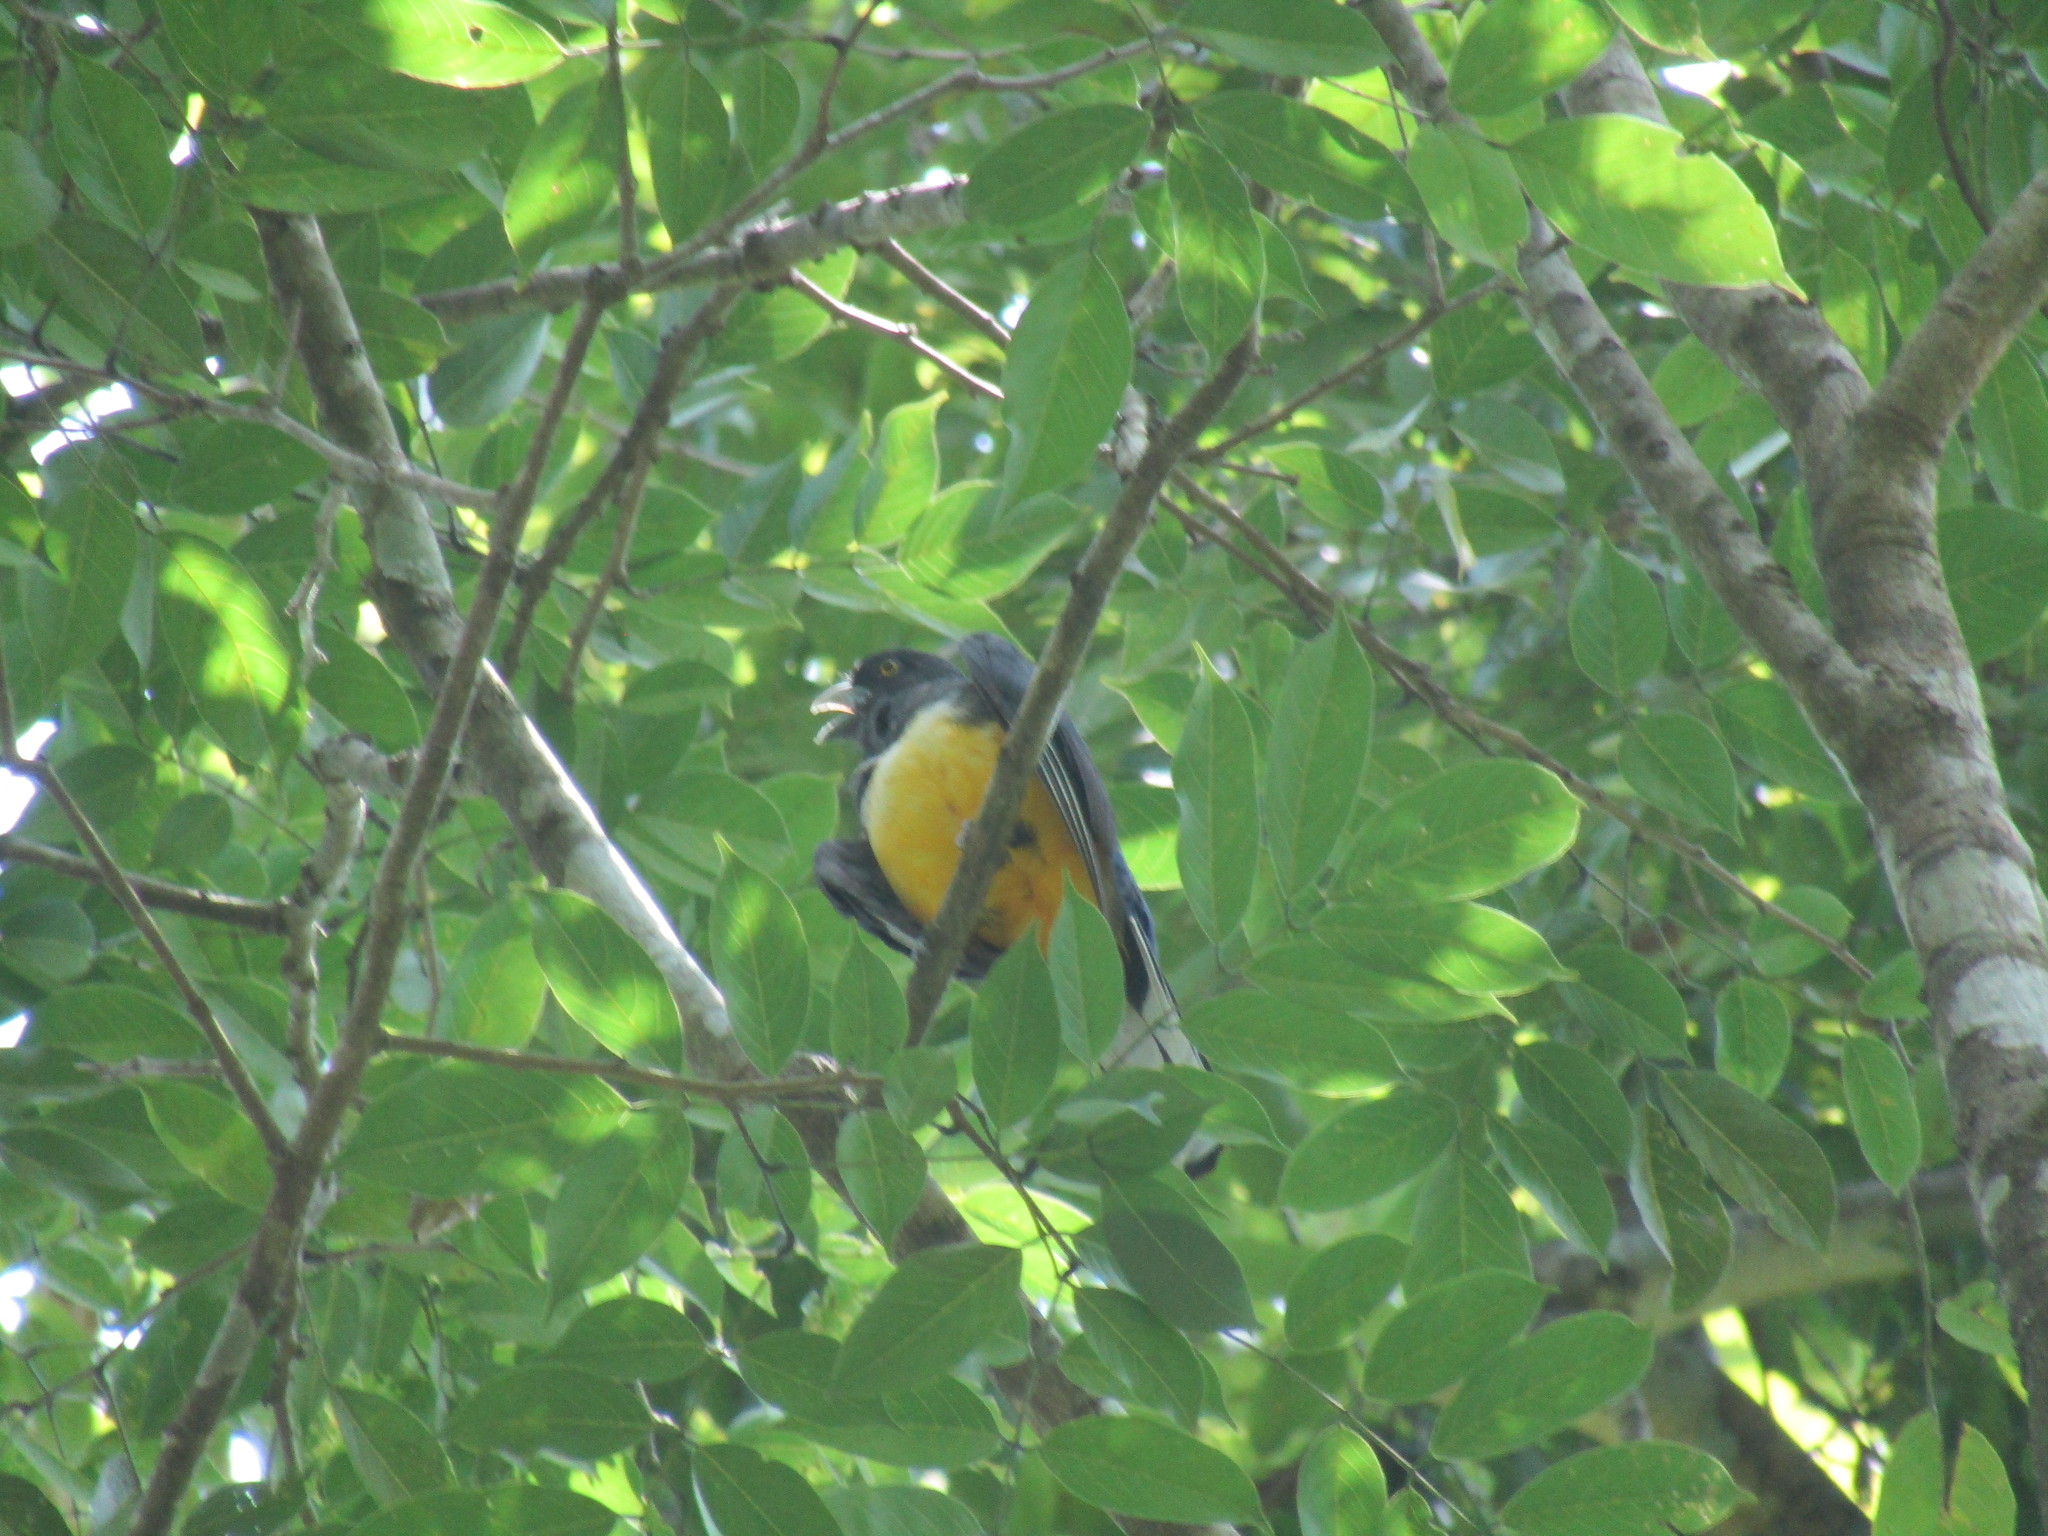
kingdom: Animalia
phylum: Chordata
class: Aves
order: Trogoniformes
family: Trogonidae
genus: Trogon
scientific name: Trogon citreolus
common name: Citreoline trogon
